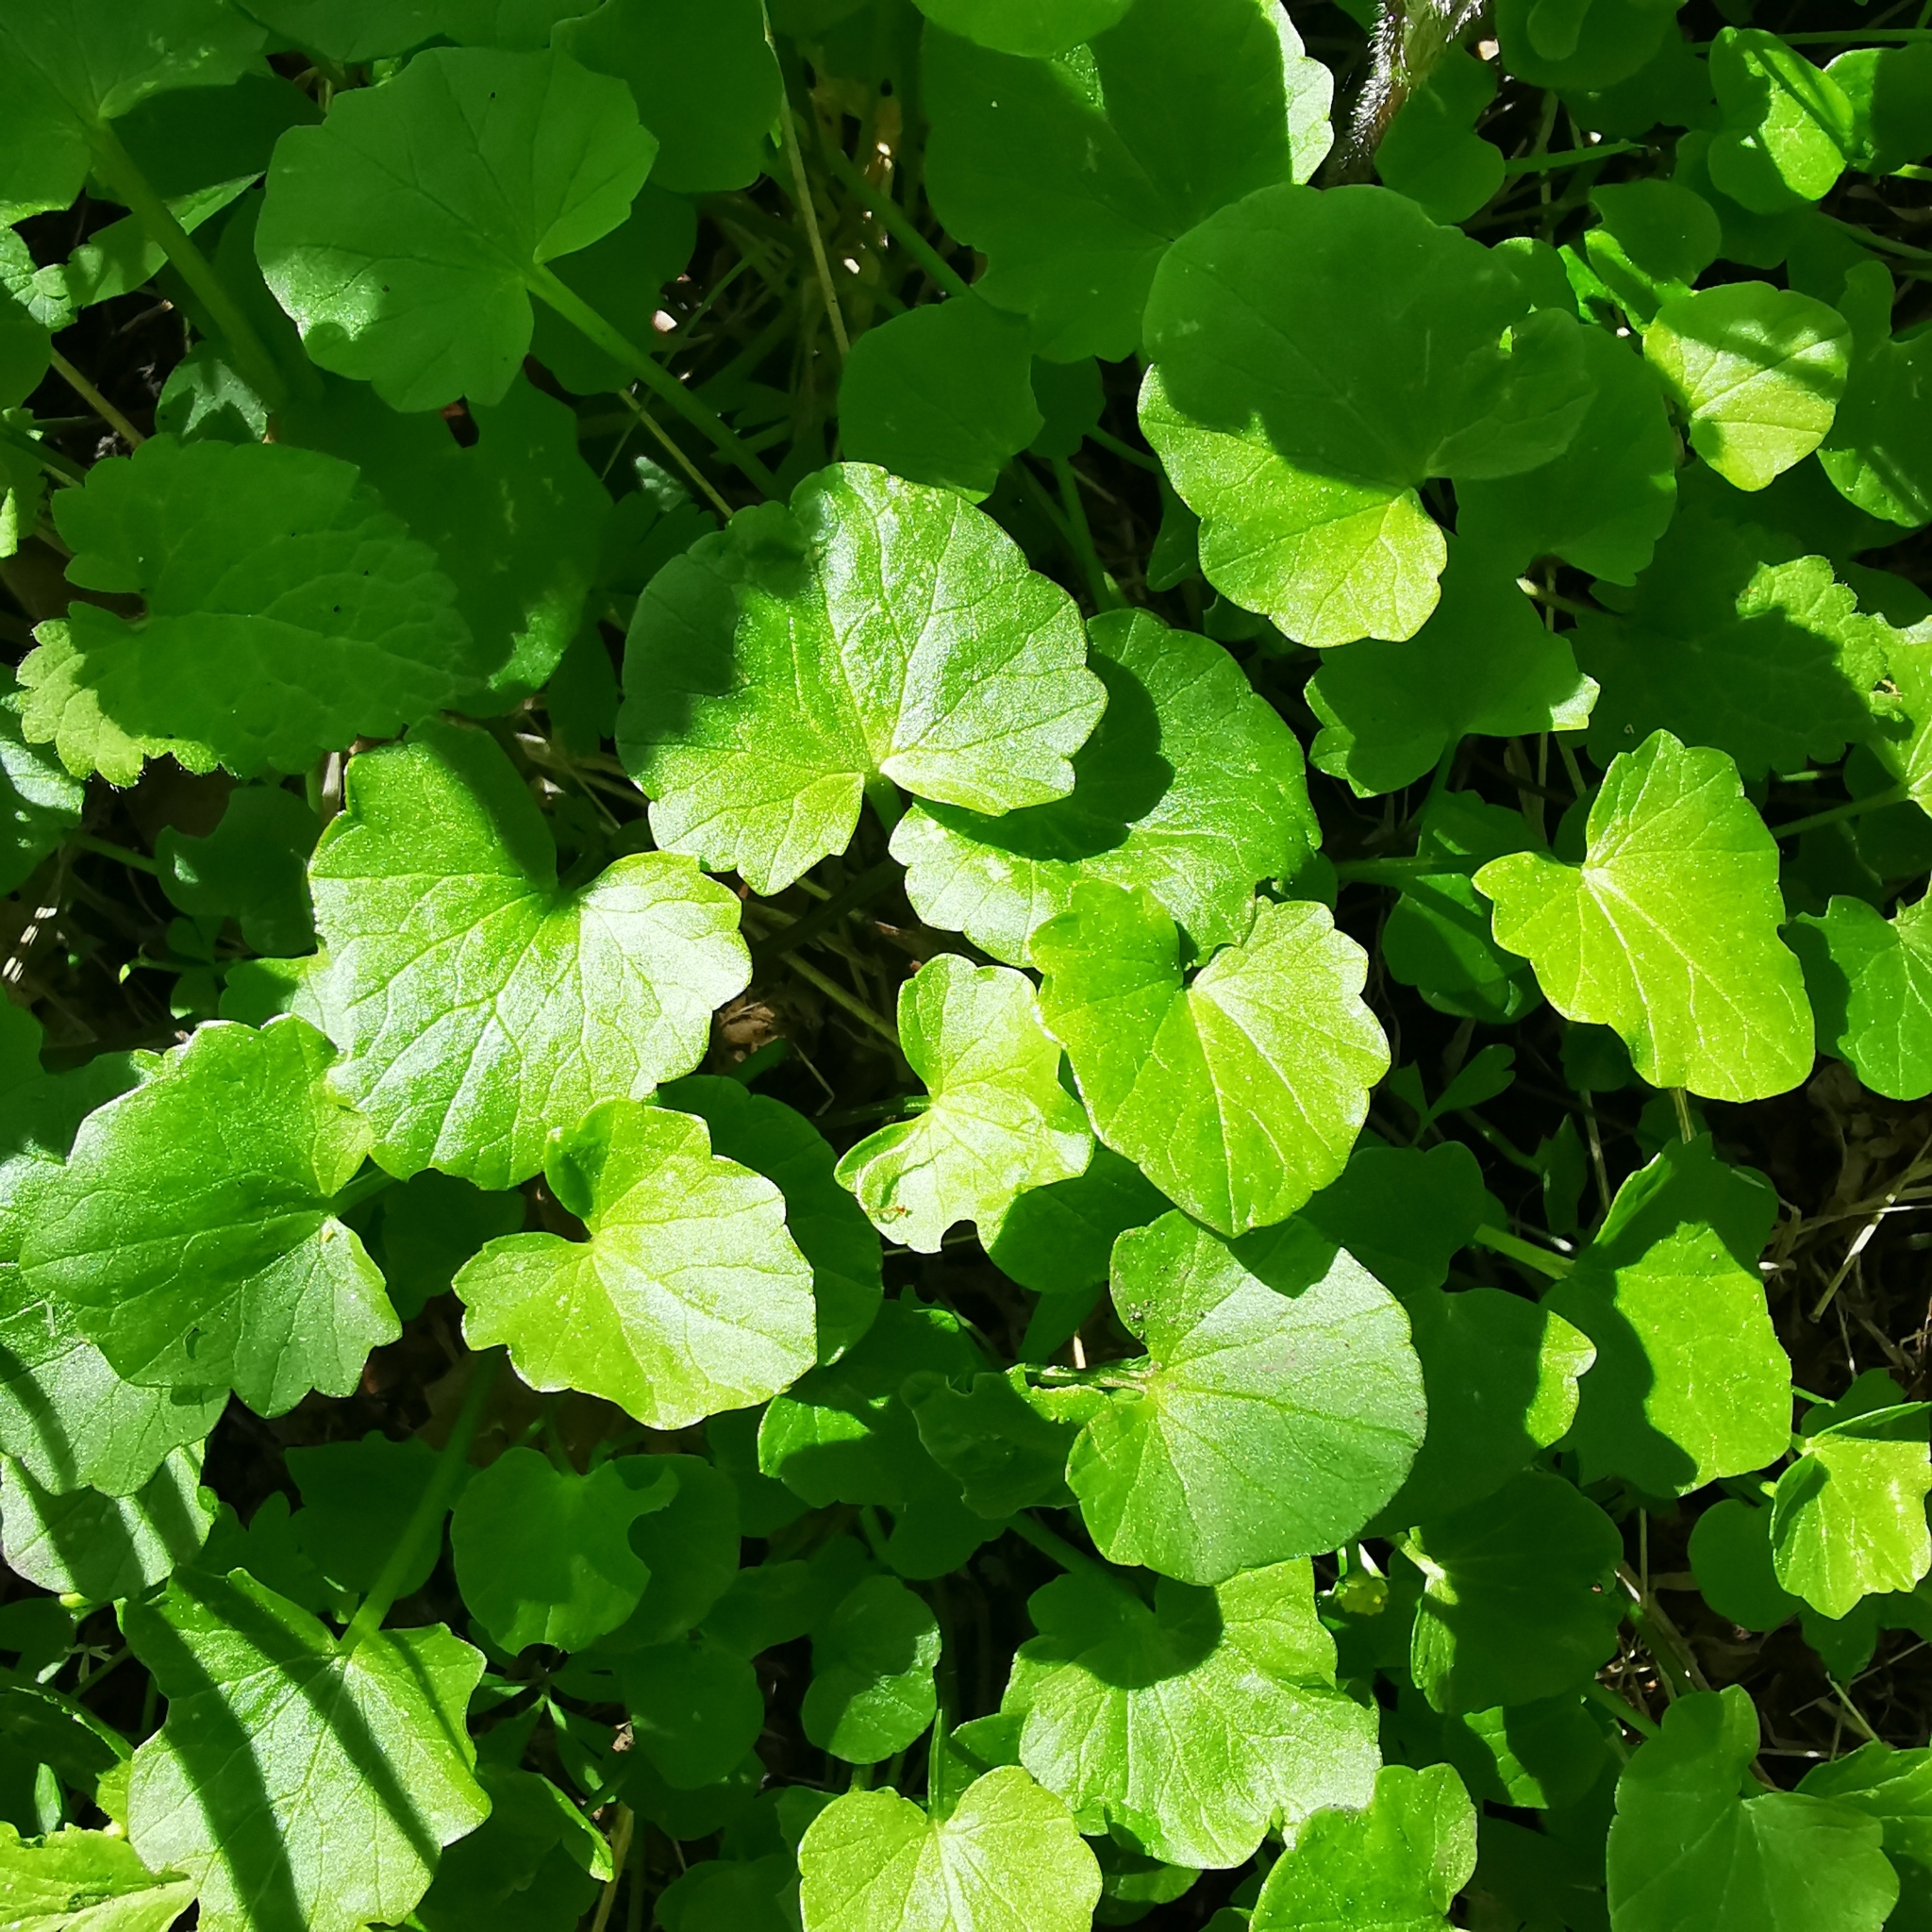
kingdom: Plantae
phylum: Tracheophyta
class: Magnoliopsida
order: Ranunculales
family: Ranunculaceae
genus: Ficaria
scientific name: Ficaria verna
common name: Lesser celandine
